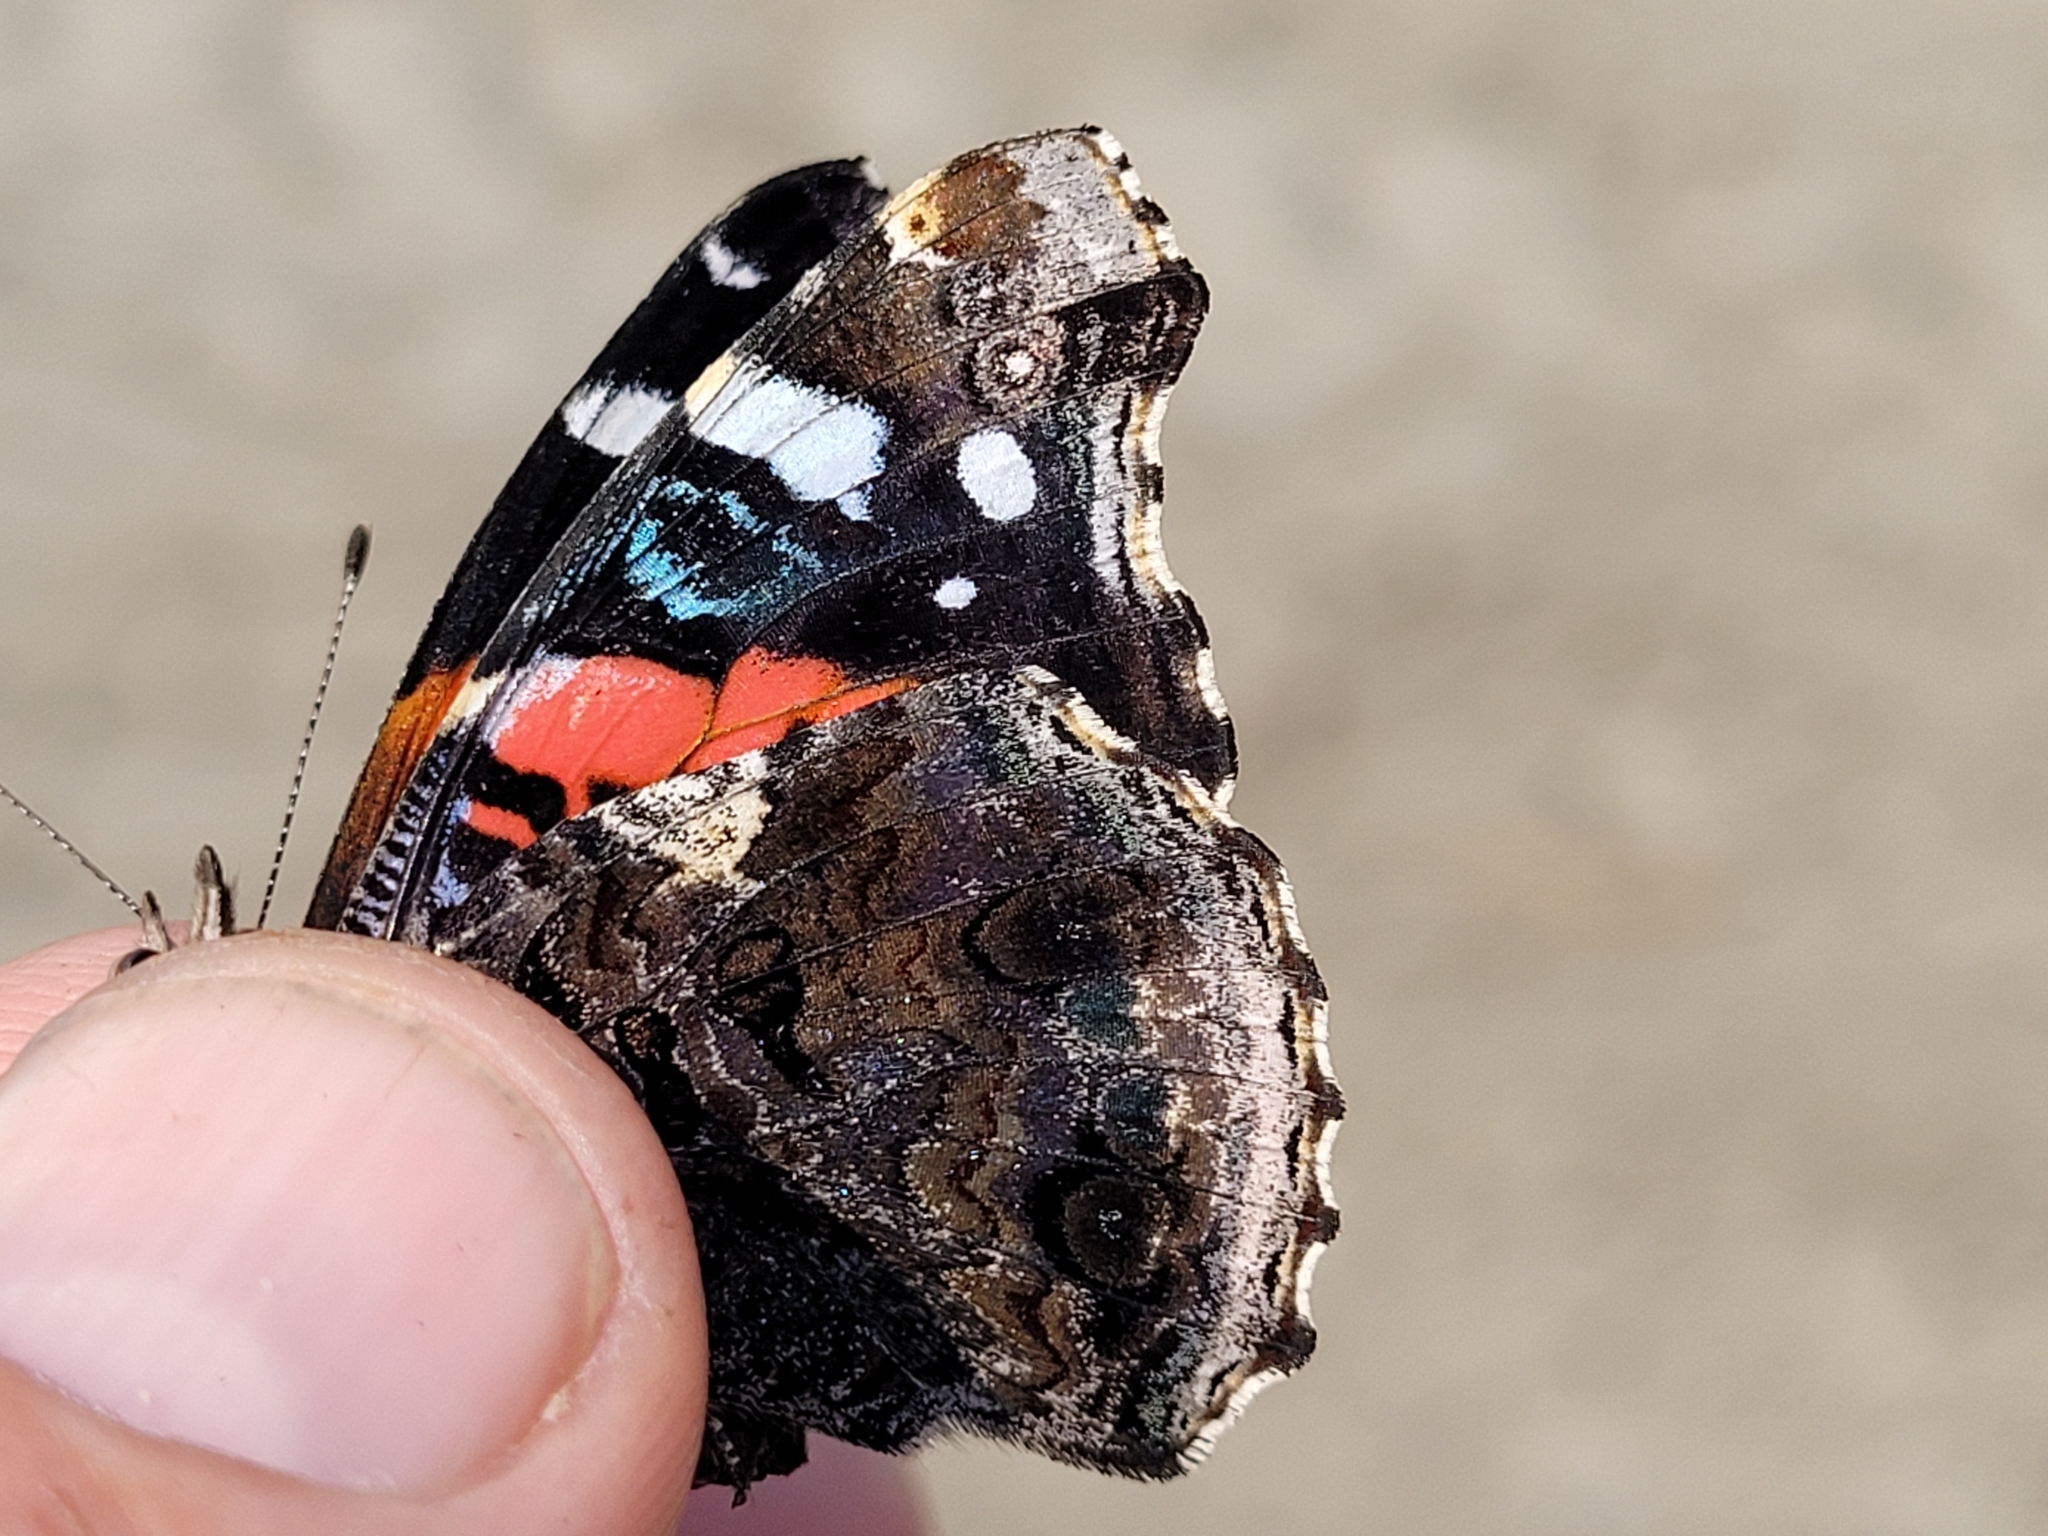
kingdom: Animalia
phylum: Arthropoda
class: Insecta
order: Lepidoptera
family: Nymphalidae
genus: Vanessa
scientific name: Vanessa atalanta
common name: Red admiral
